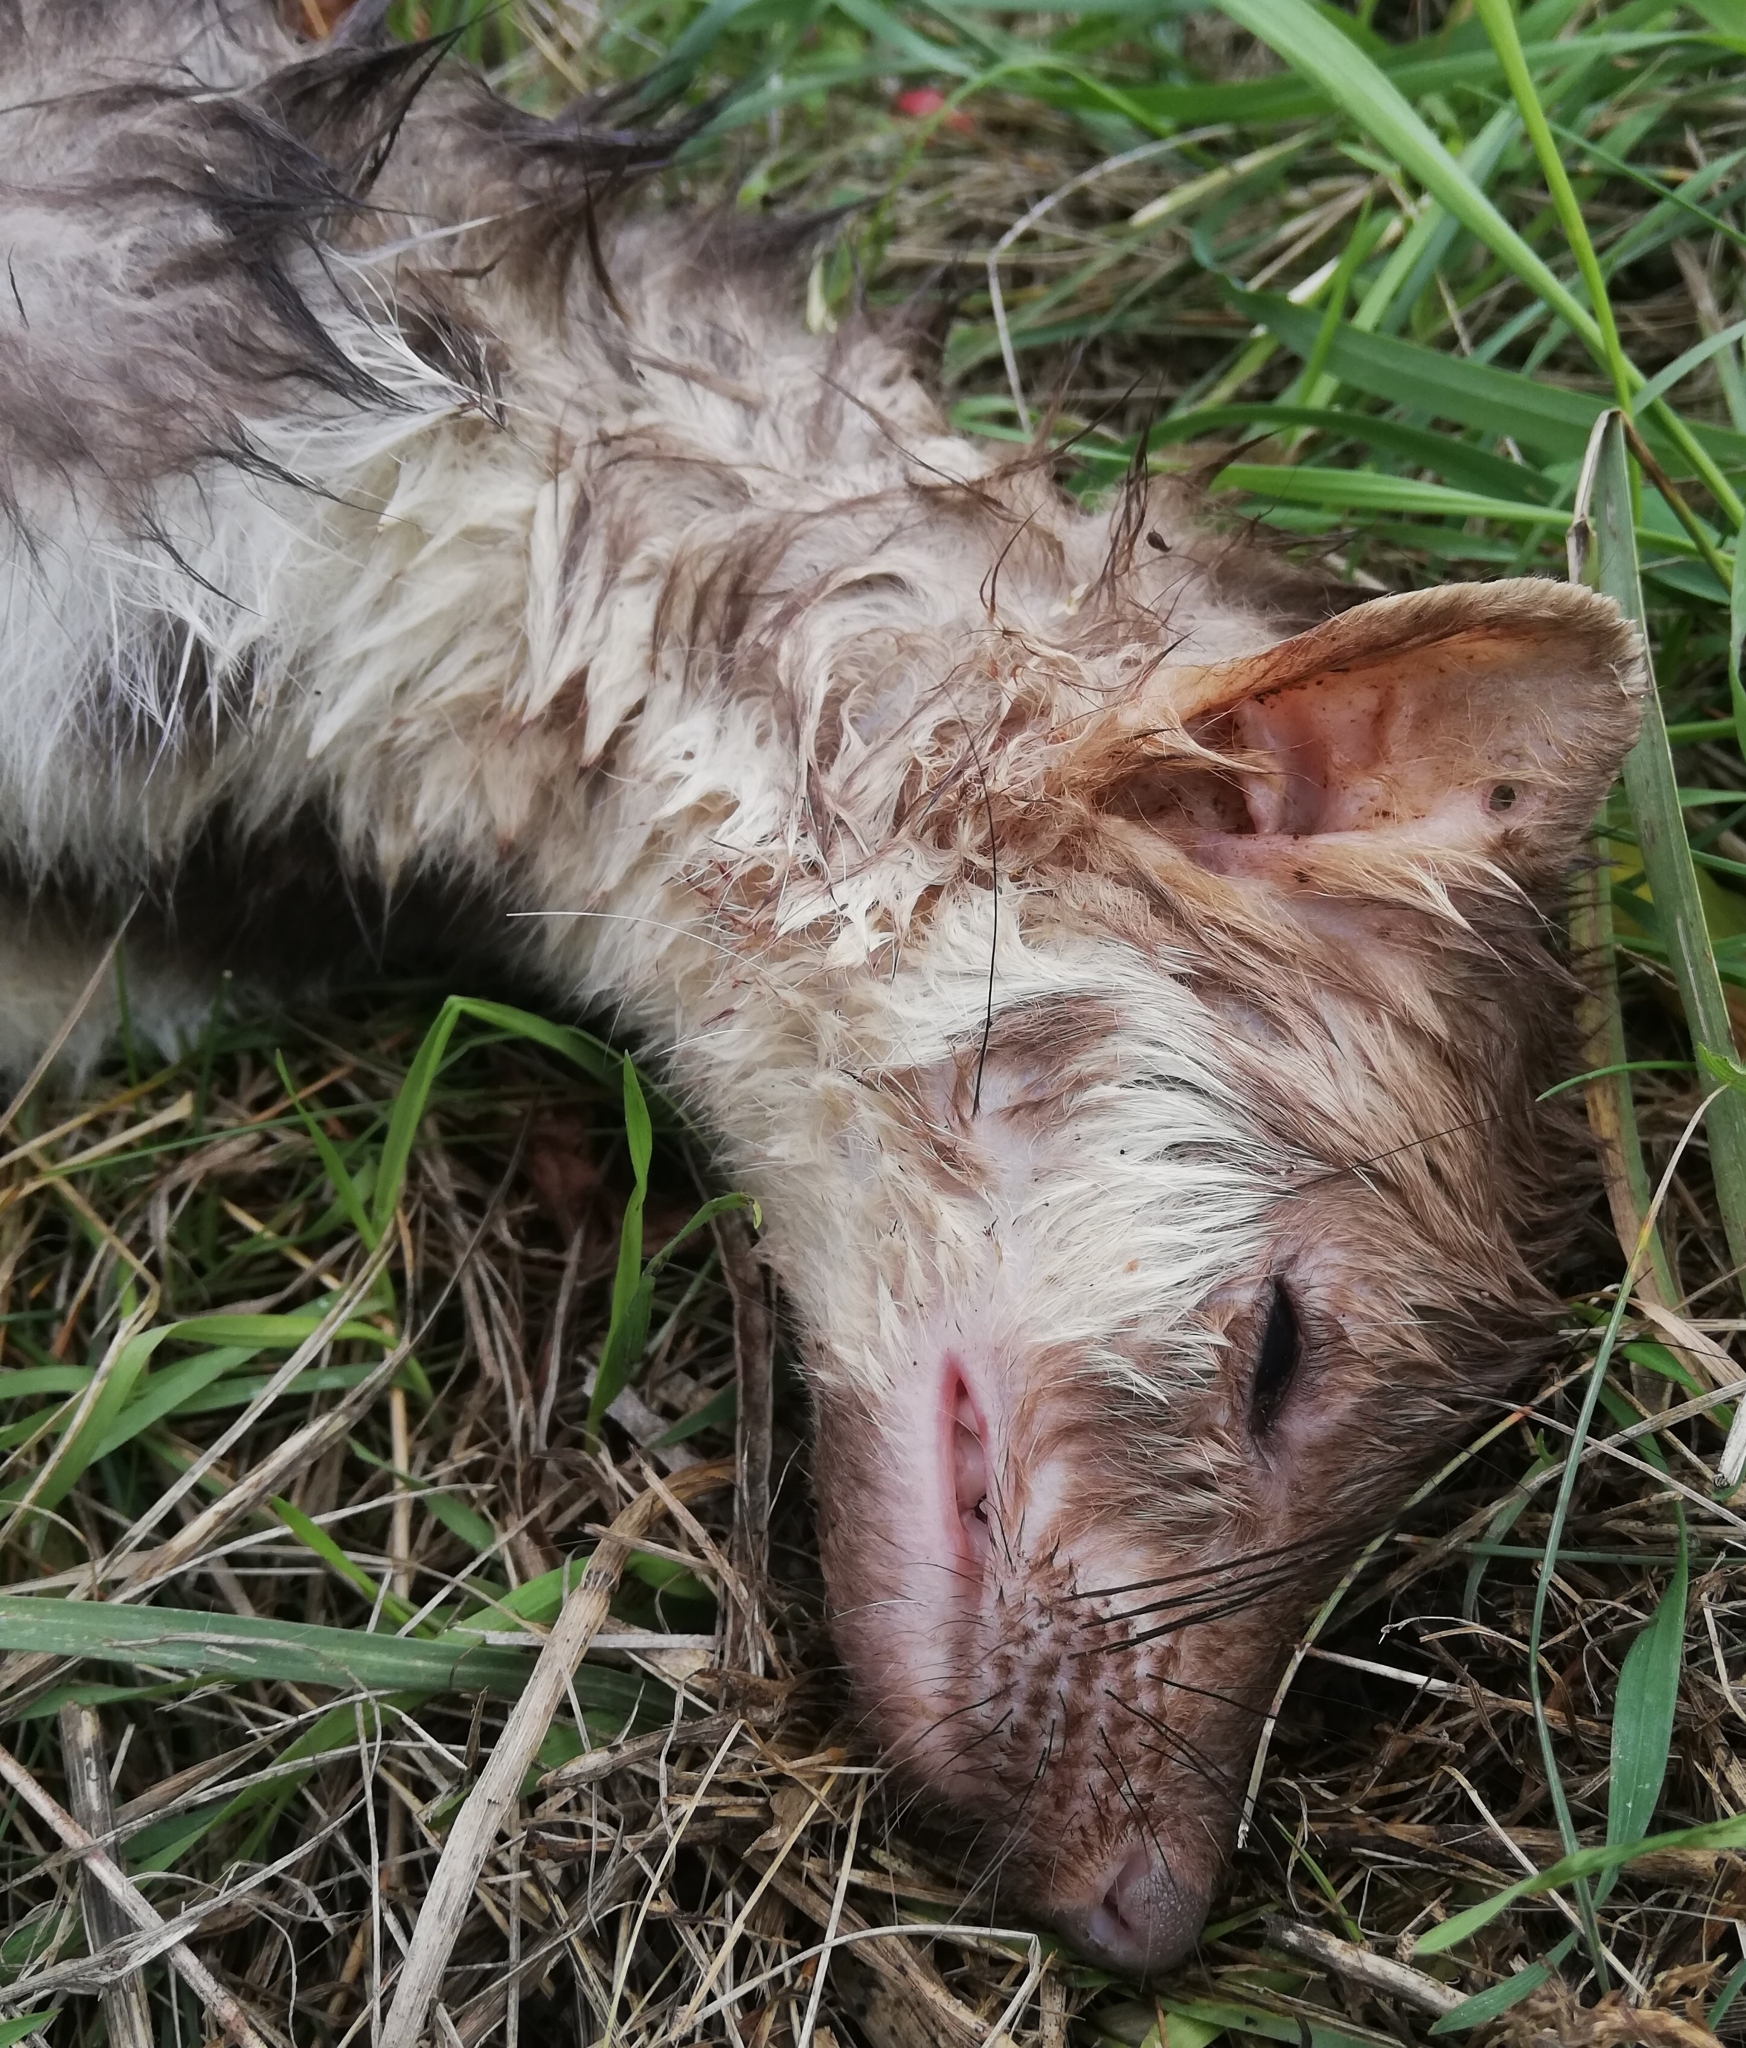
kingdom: Animalia
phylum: Chordata
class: Mammalia
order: Carnivora
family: Mustelidae
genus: Martes
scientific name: Martes foina
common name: Beech marten
